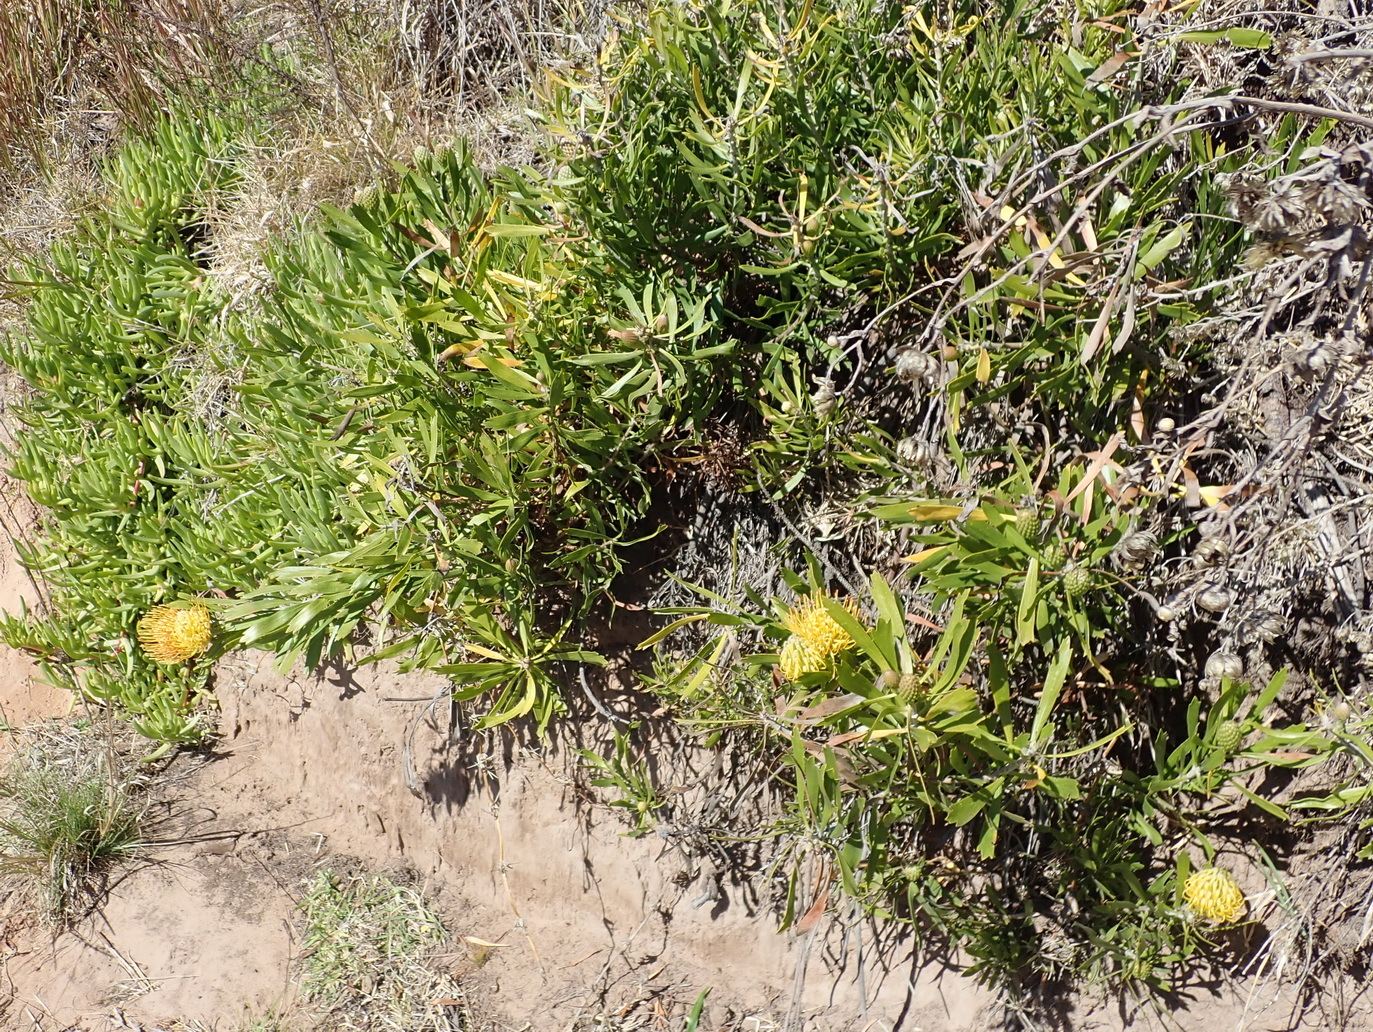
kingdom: Plantae
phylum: Tracheophyta
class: Magnoliopsida
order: Proteales
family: Proteaceae
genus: Leucospermum
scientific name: Leucospermum cuneiforme
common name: Common pincushion
